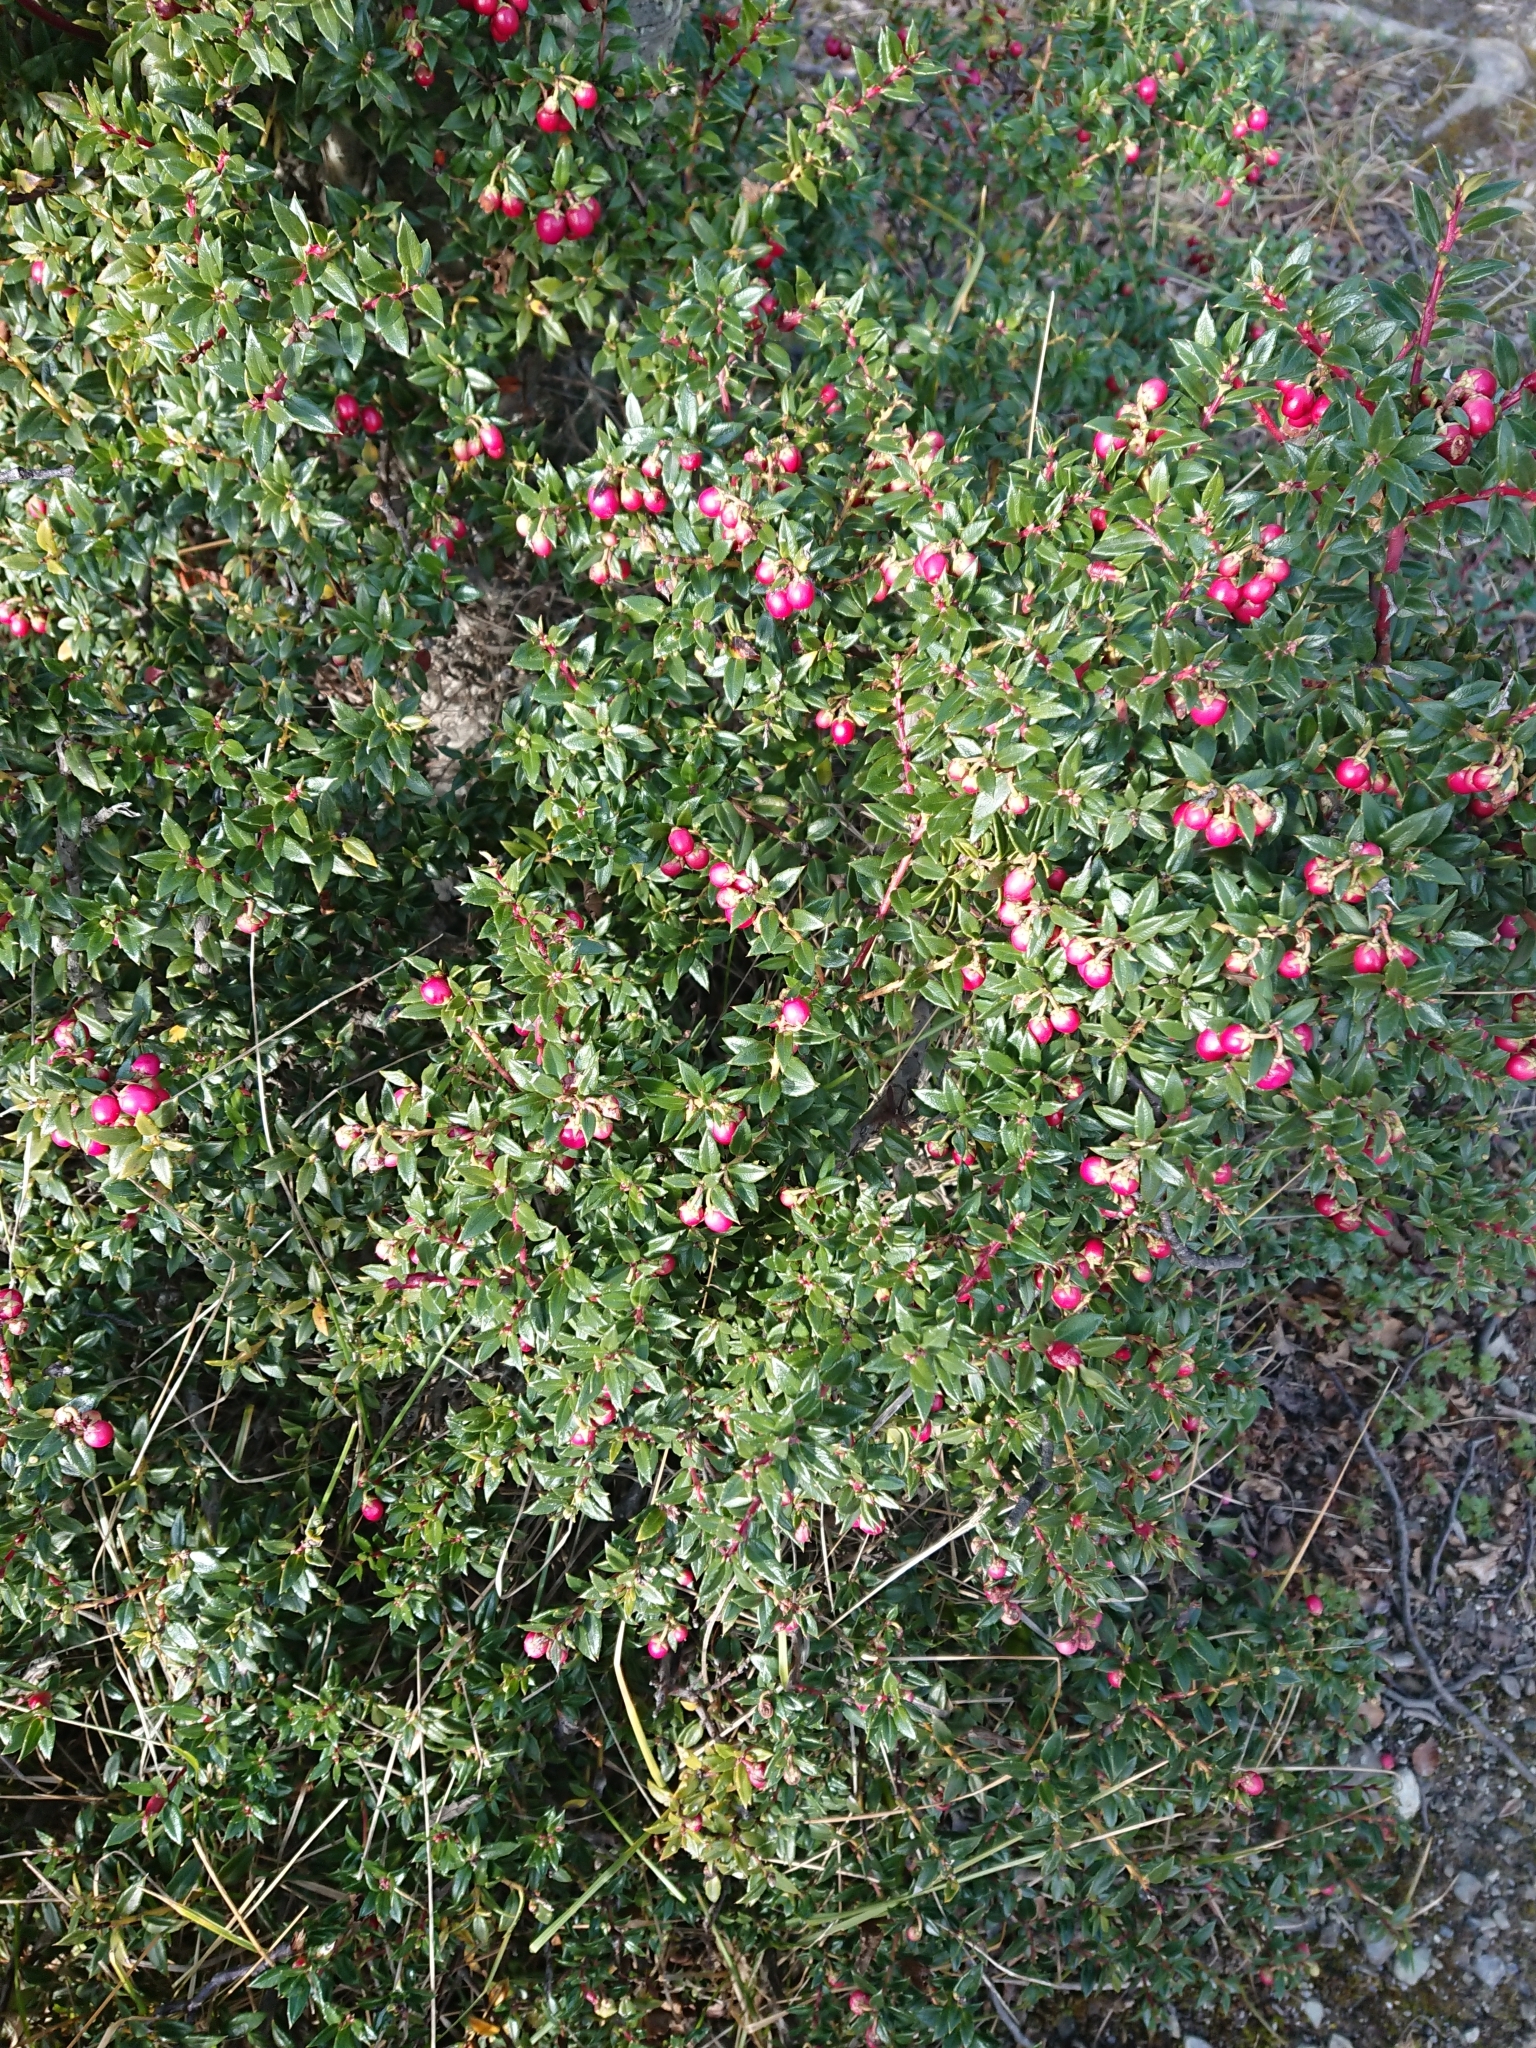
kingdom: Plantae
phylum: Tracheophyta
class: Magnoliopsida
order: Ericales
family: Ericaceae
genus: Gaultheria
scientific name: Gaultheria mucronata
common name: Prickly heath
